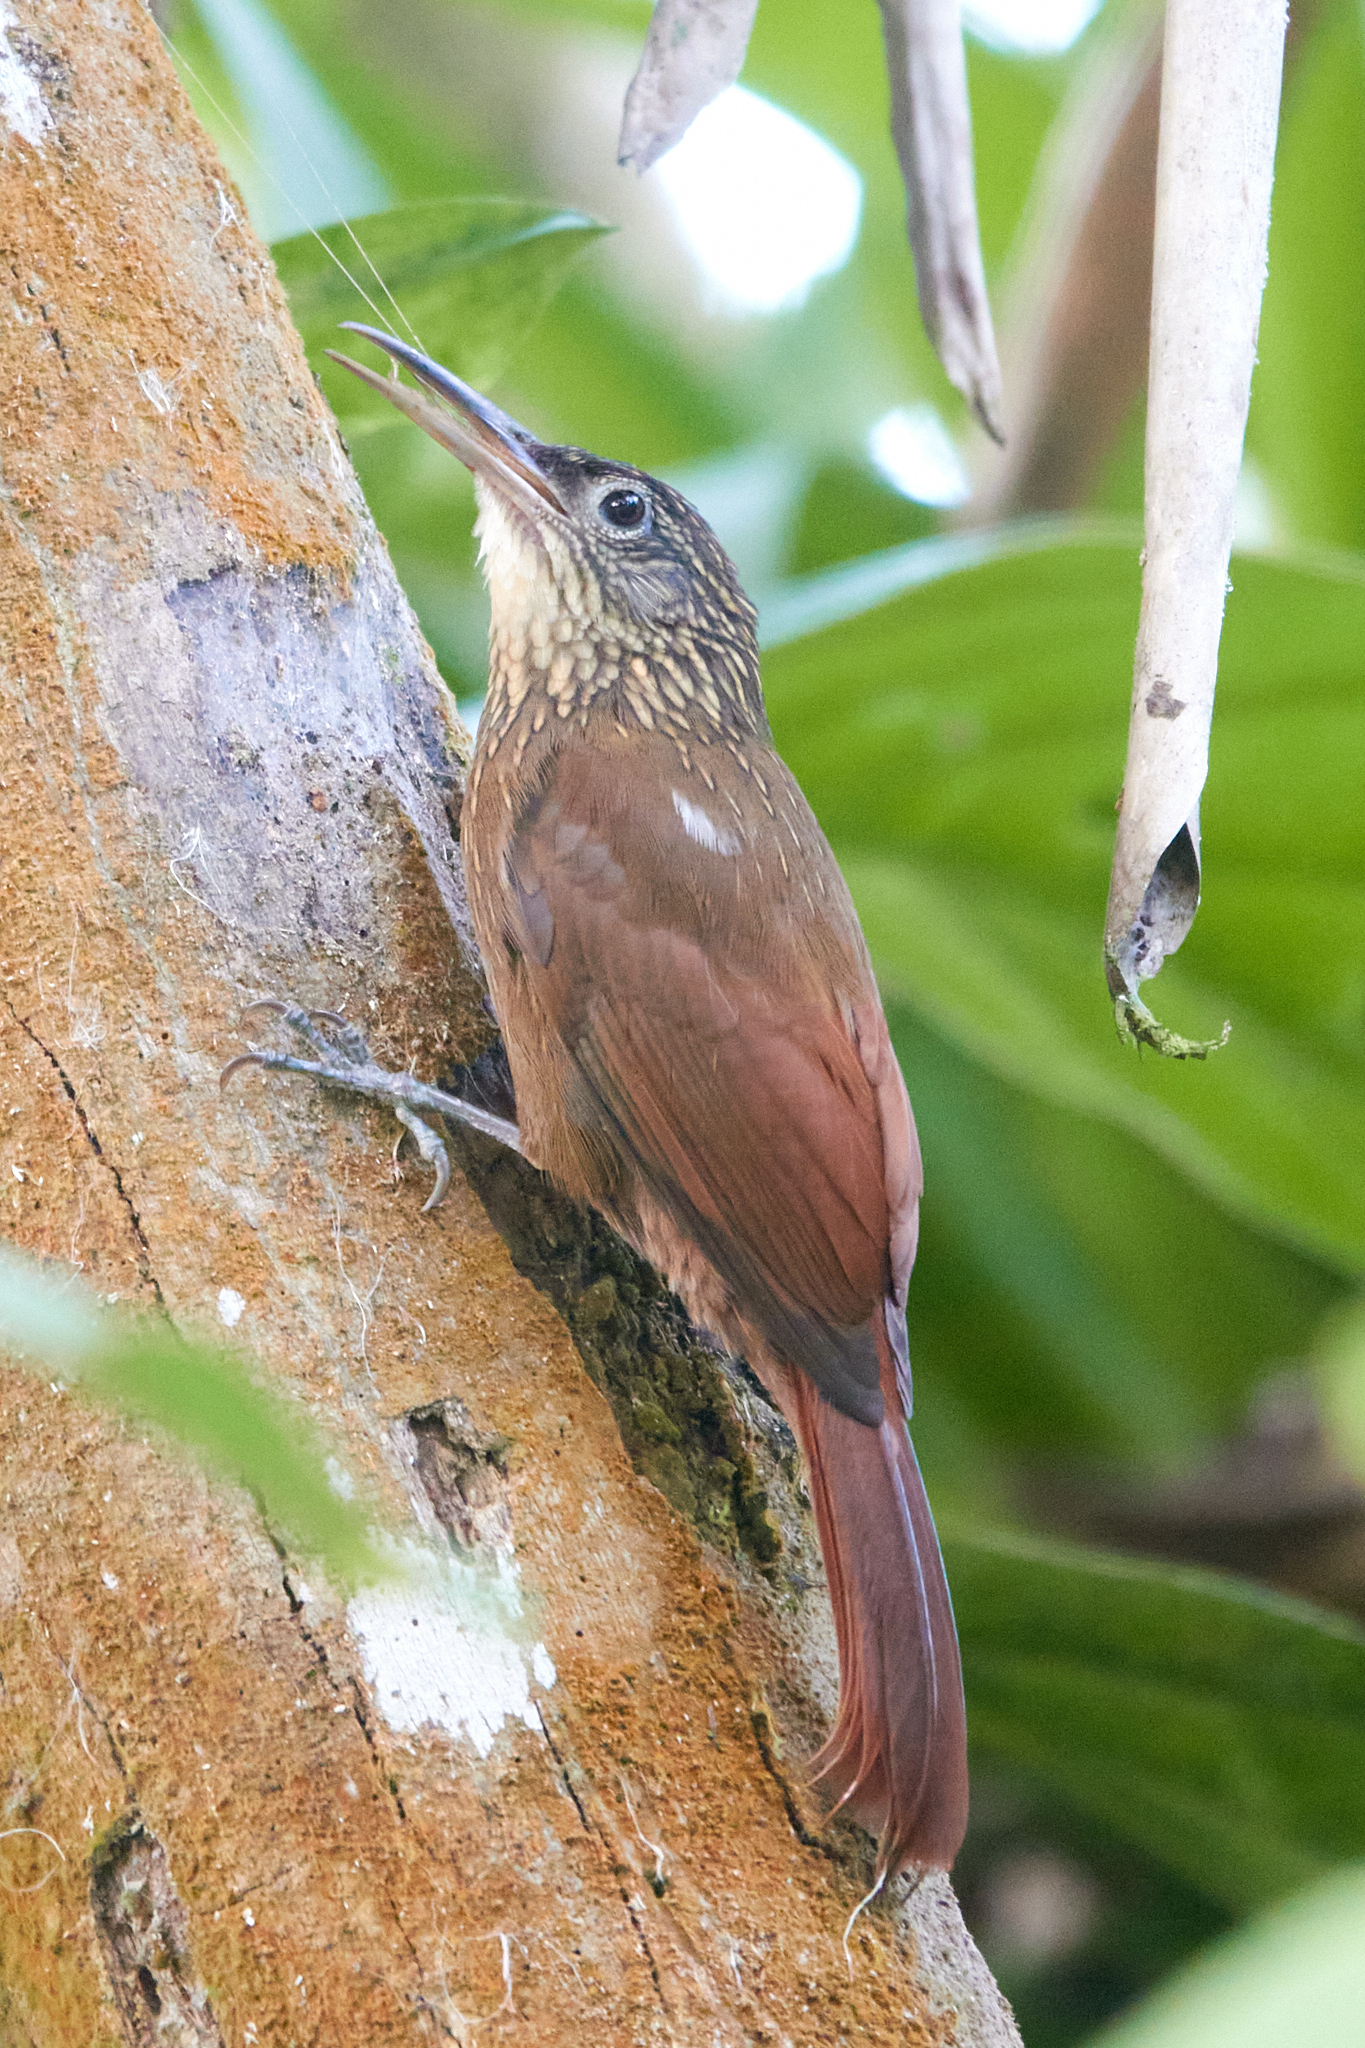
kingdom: Animalia
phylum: Chordata
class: Aves
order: Passeriformes
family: Furnariidae
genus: Xiphorhynchus
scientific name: Xiphorhynchus susurrans
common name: Cocoa woodcreeper
